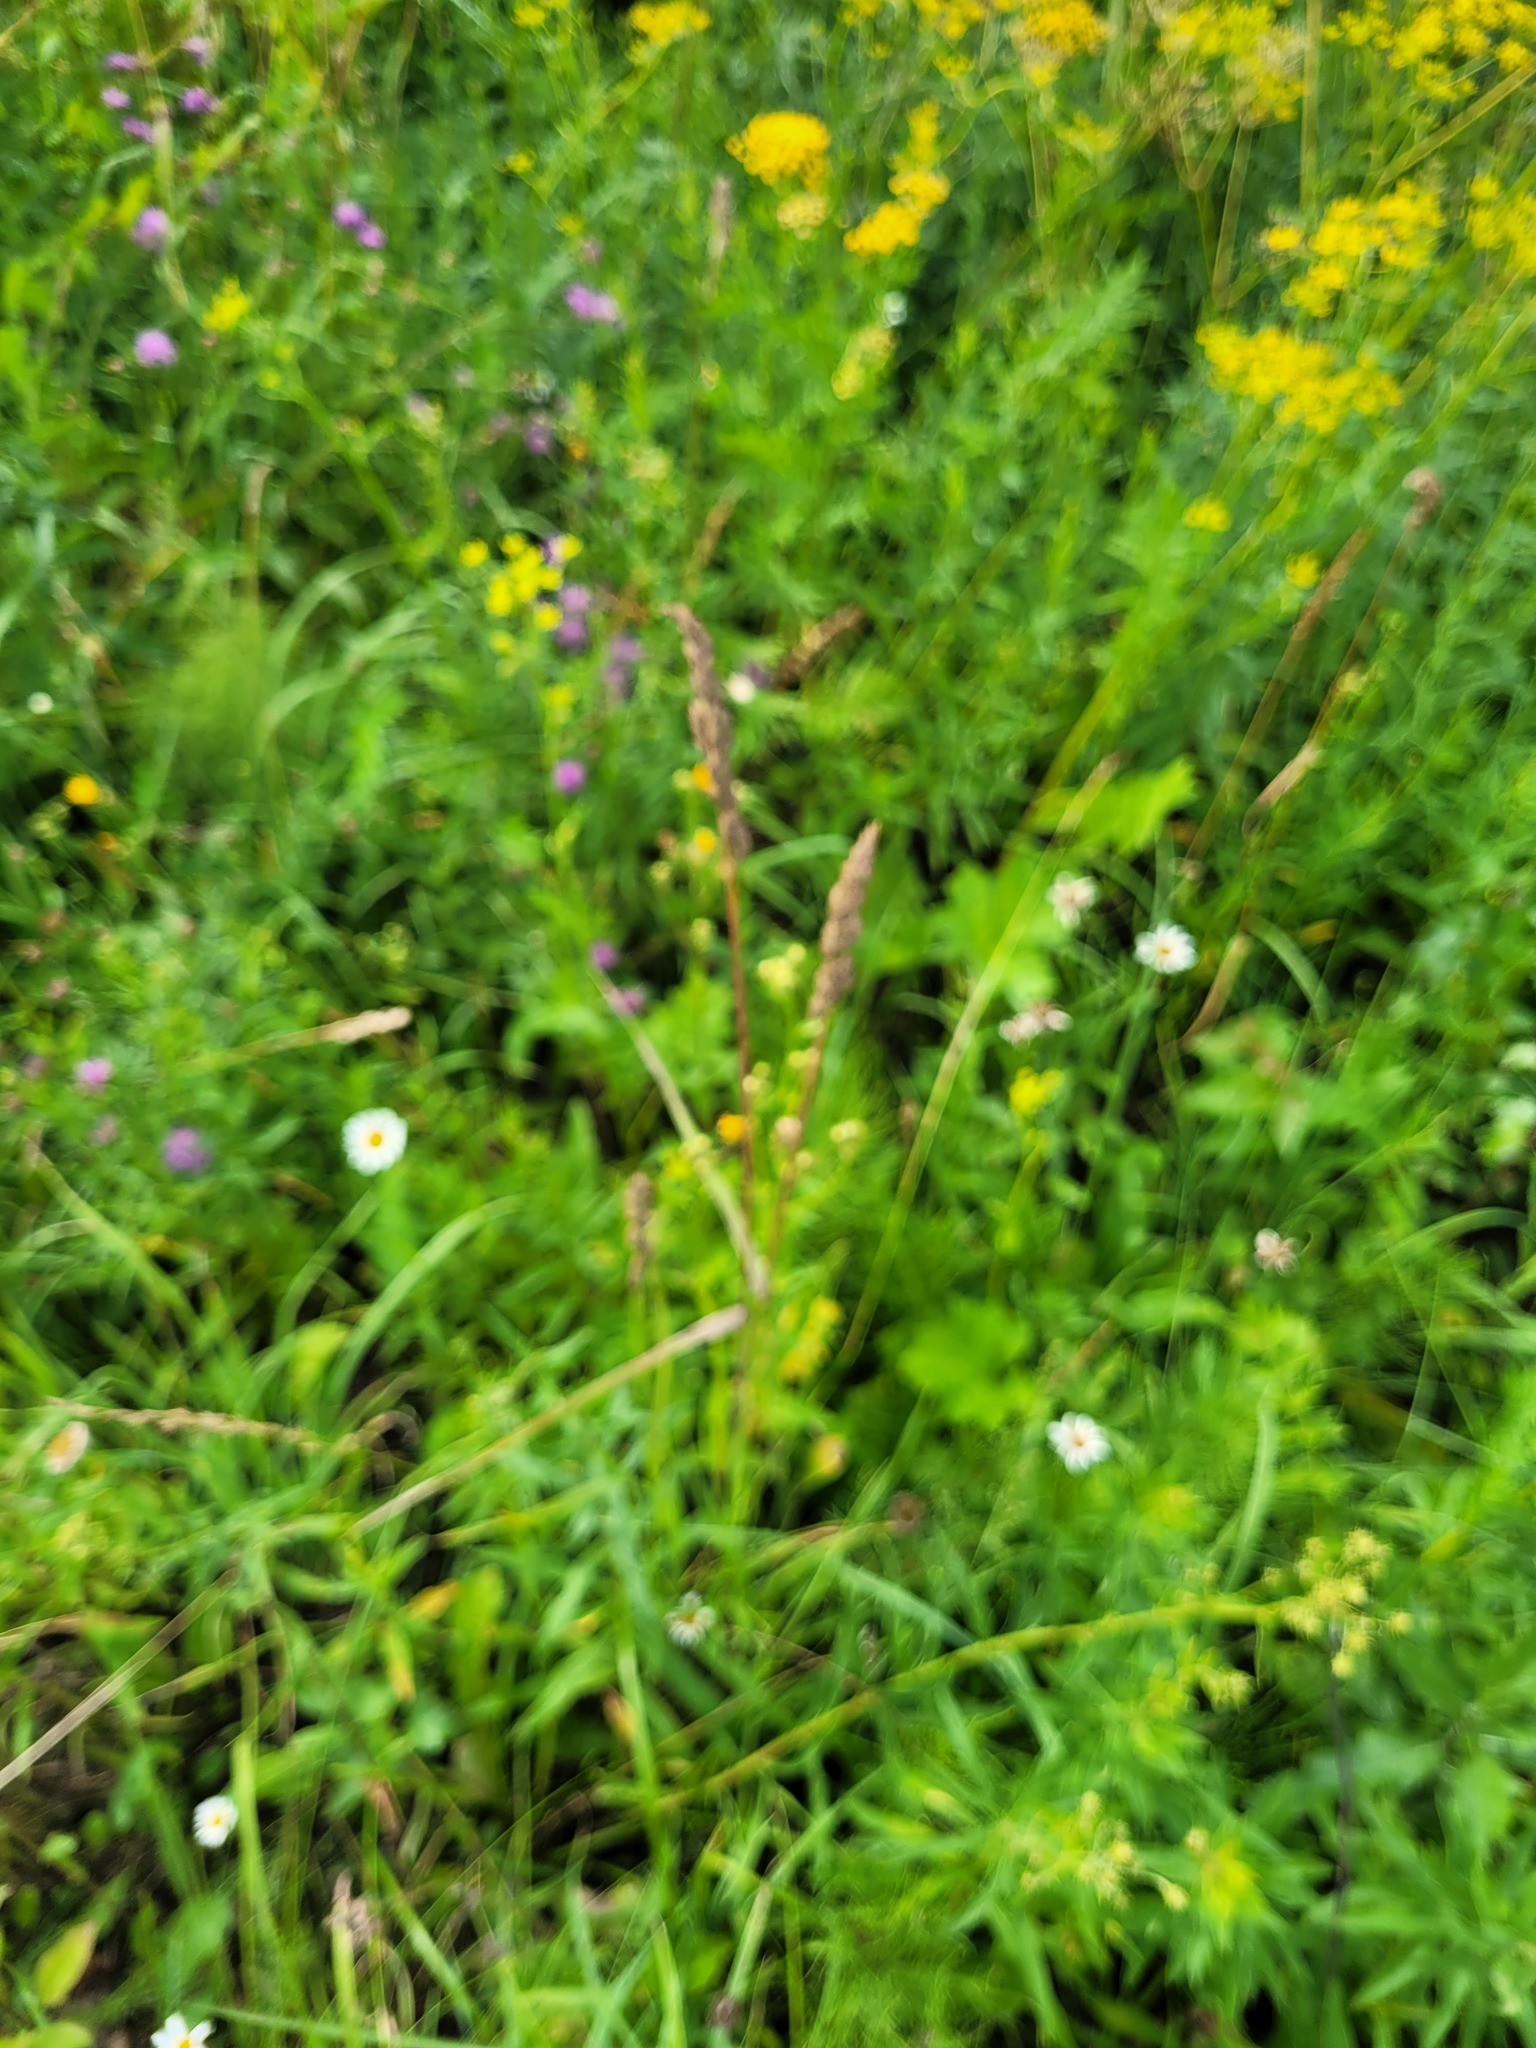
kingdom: Plantae
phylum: Tracheophyta
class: Liliopsida
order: Poales
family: Poaceae
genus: Dactylis
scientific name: Dactylis glomerata
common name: Orchardgrass
